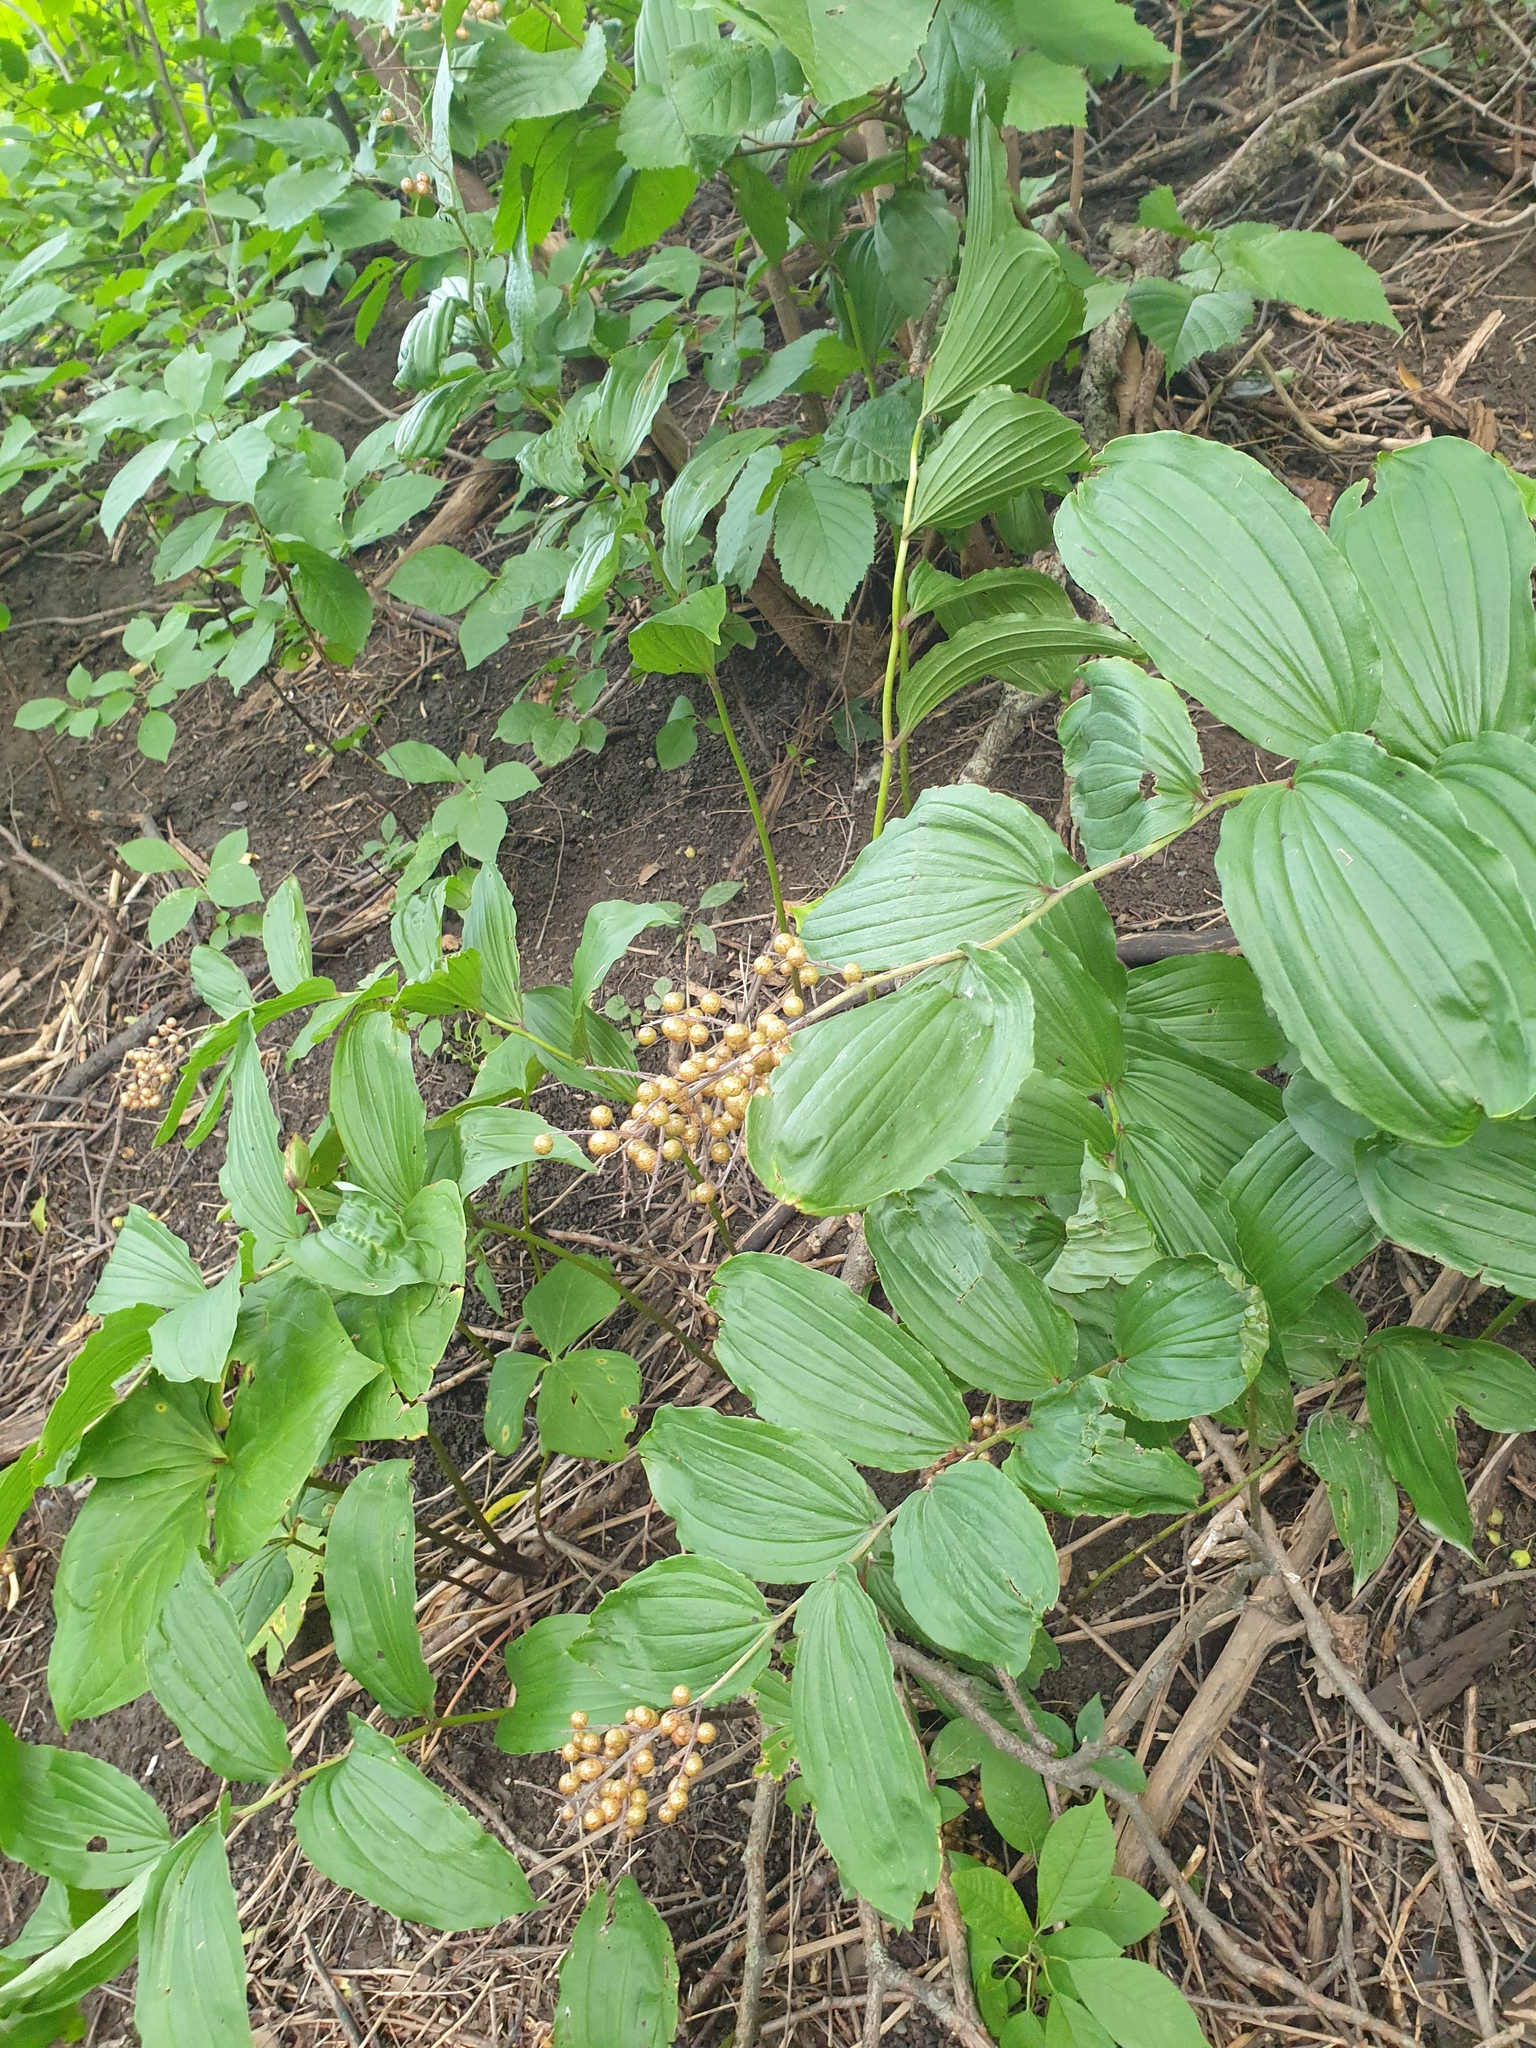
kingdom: Plantae
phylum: Tracheophyta
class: Liliopsida
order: Asparagales
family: Asparagaceae
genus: Maianthemum
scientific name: Maianthemum racemosum
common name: False spikenard
